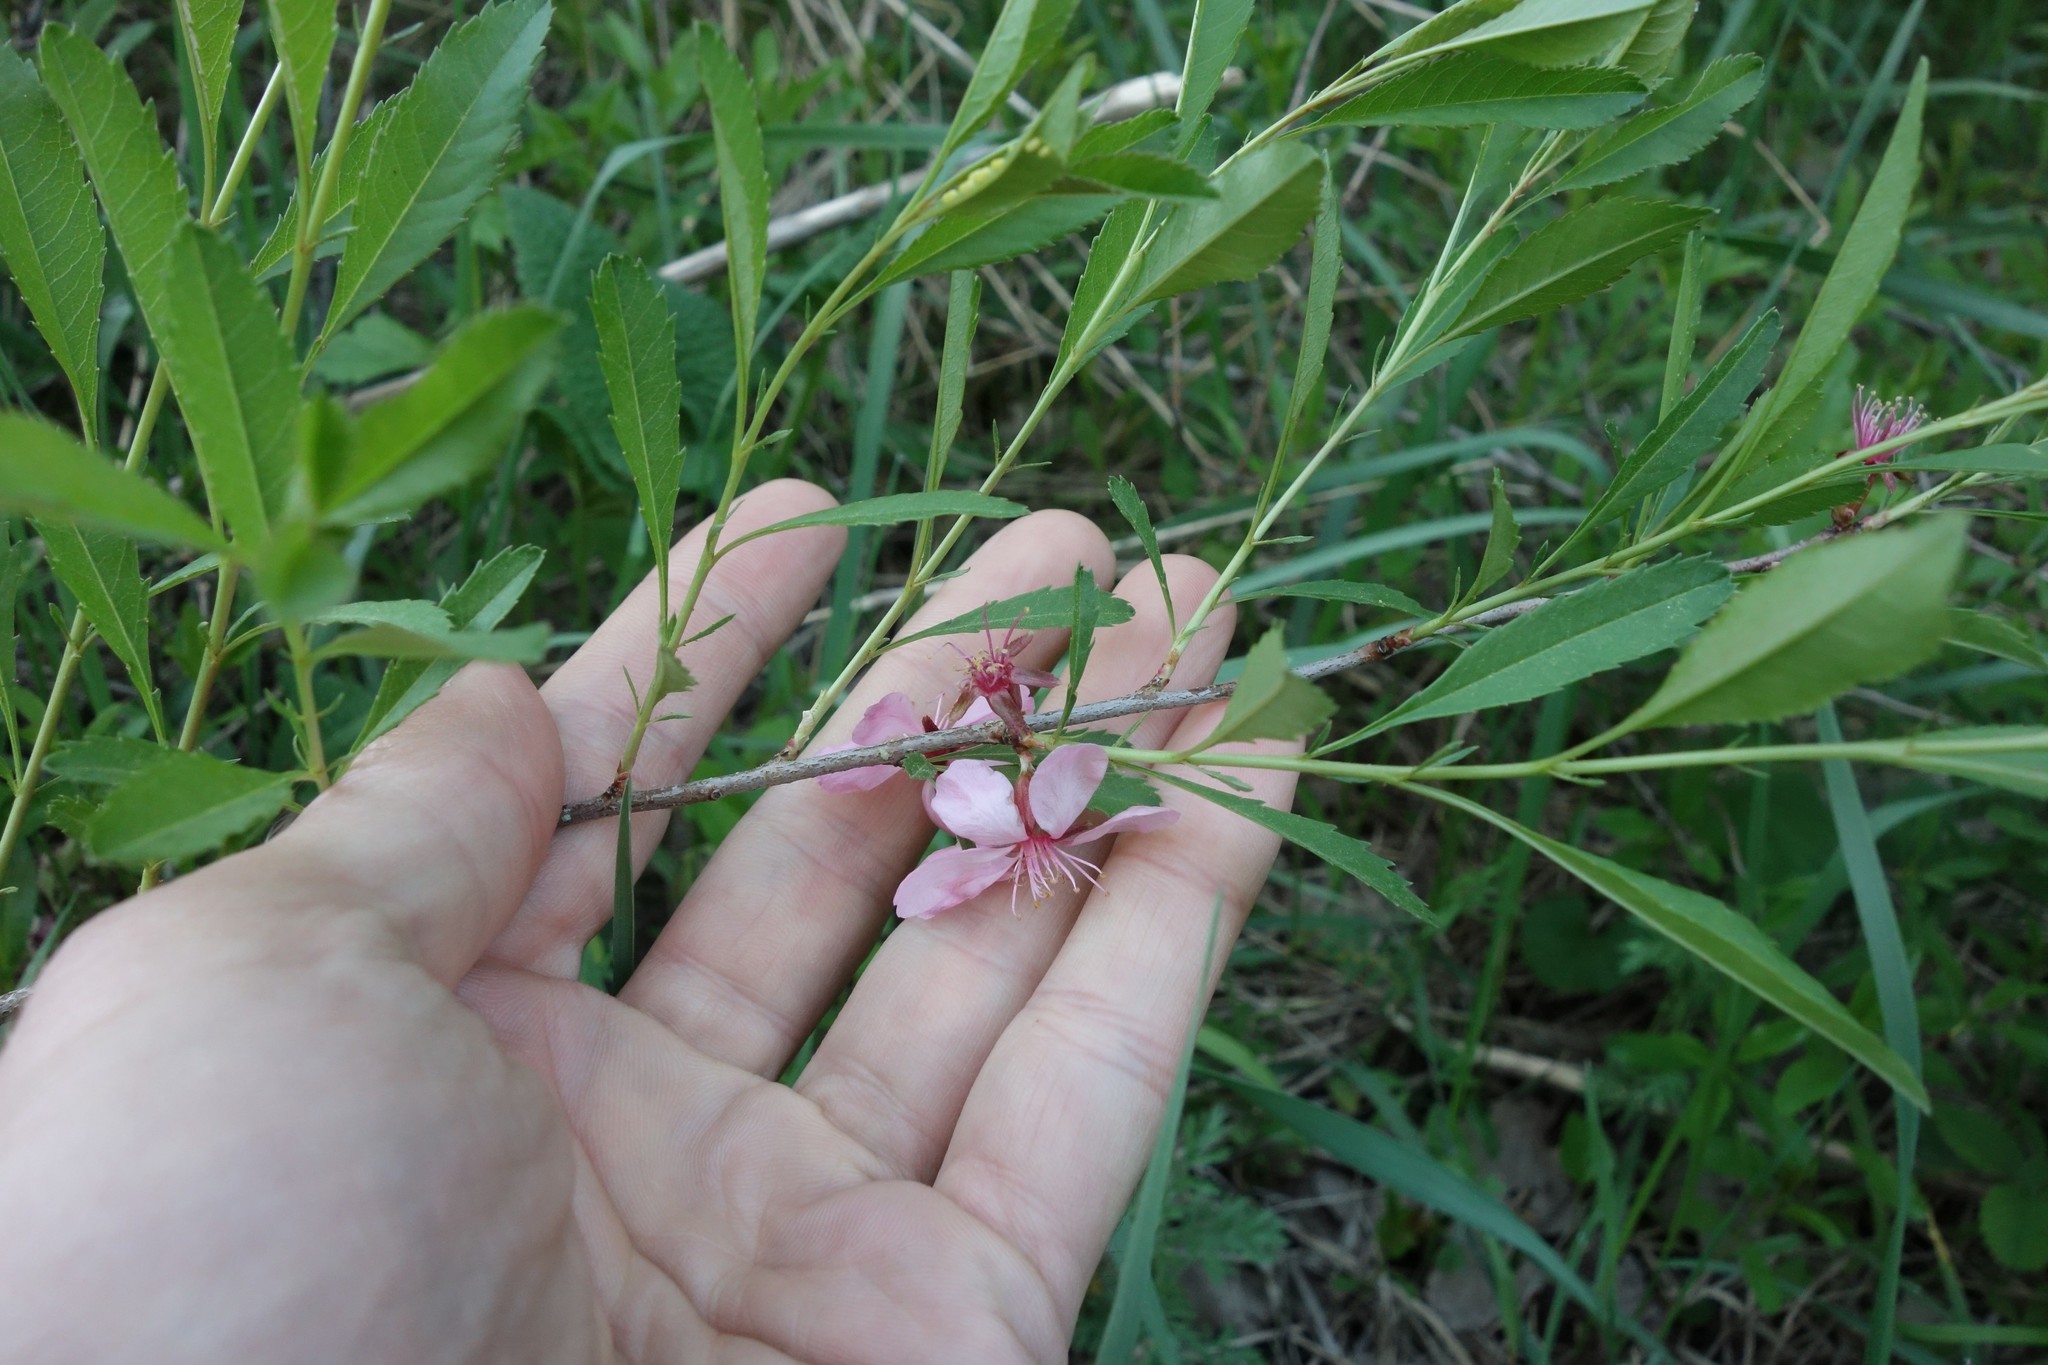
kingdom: Plantae
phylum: Tracheophyta
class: Magnoliopsida
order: Rosales
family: Rosaceae
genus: Prunus
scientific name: Prunus tenella
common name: Dwarf russian almond
